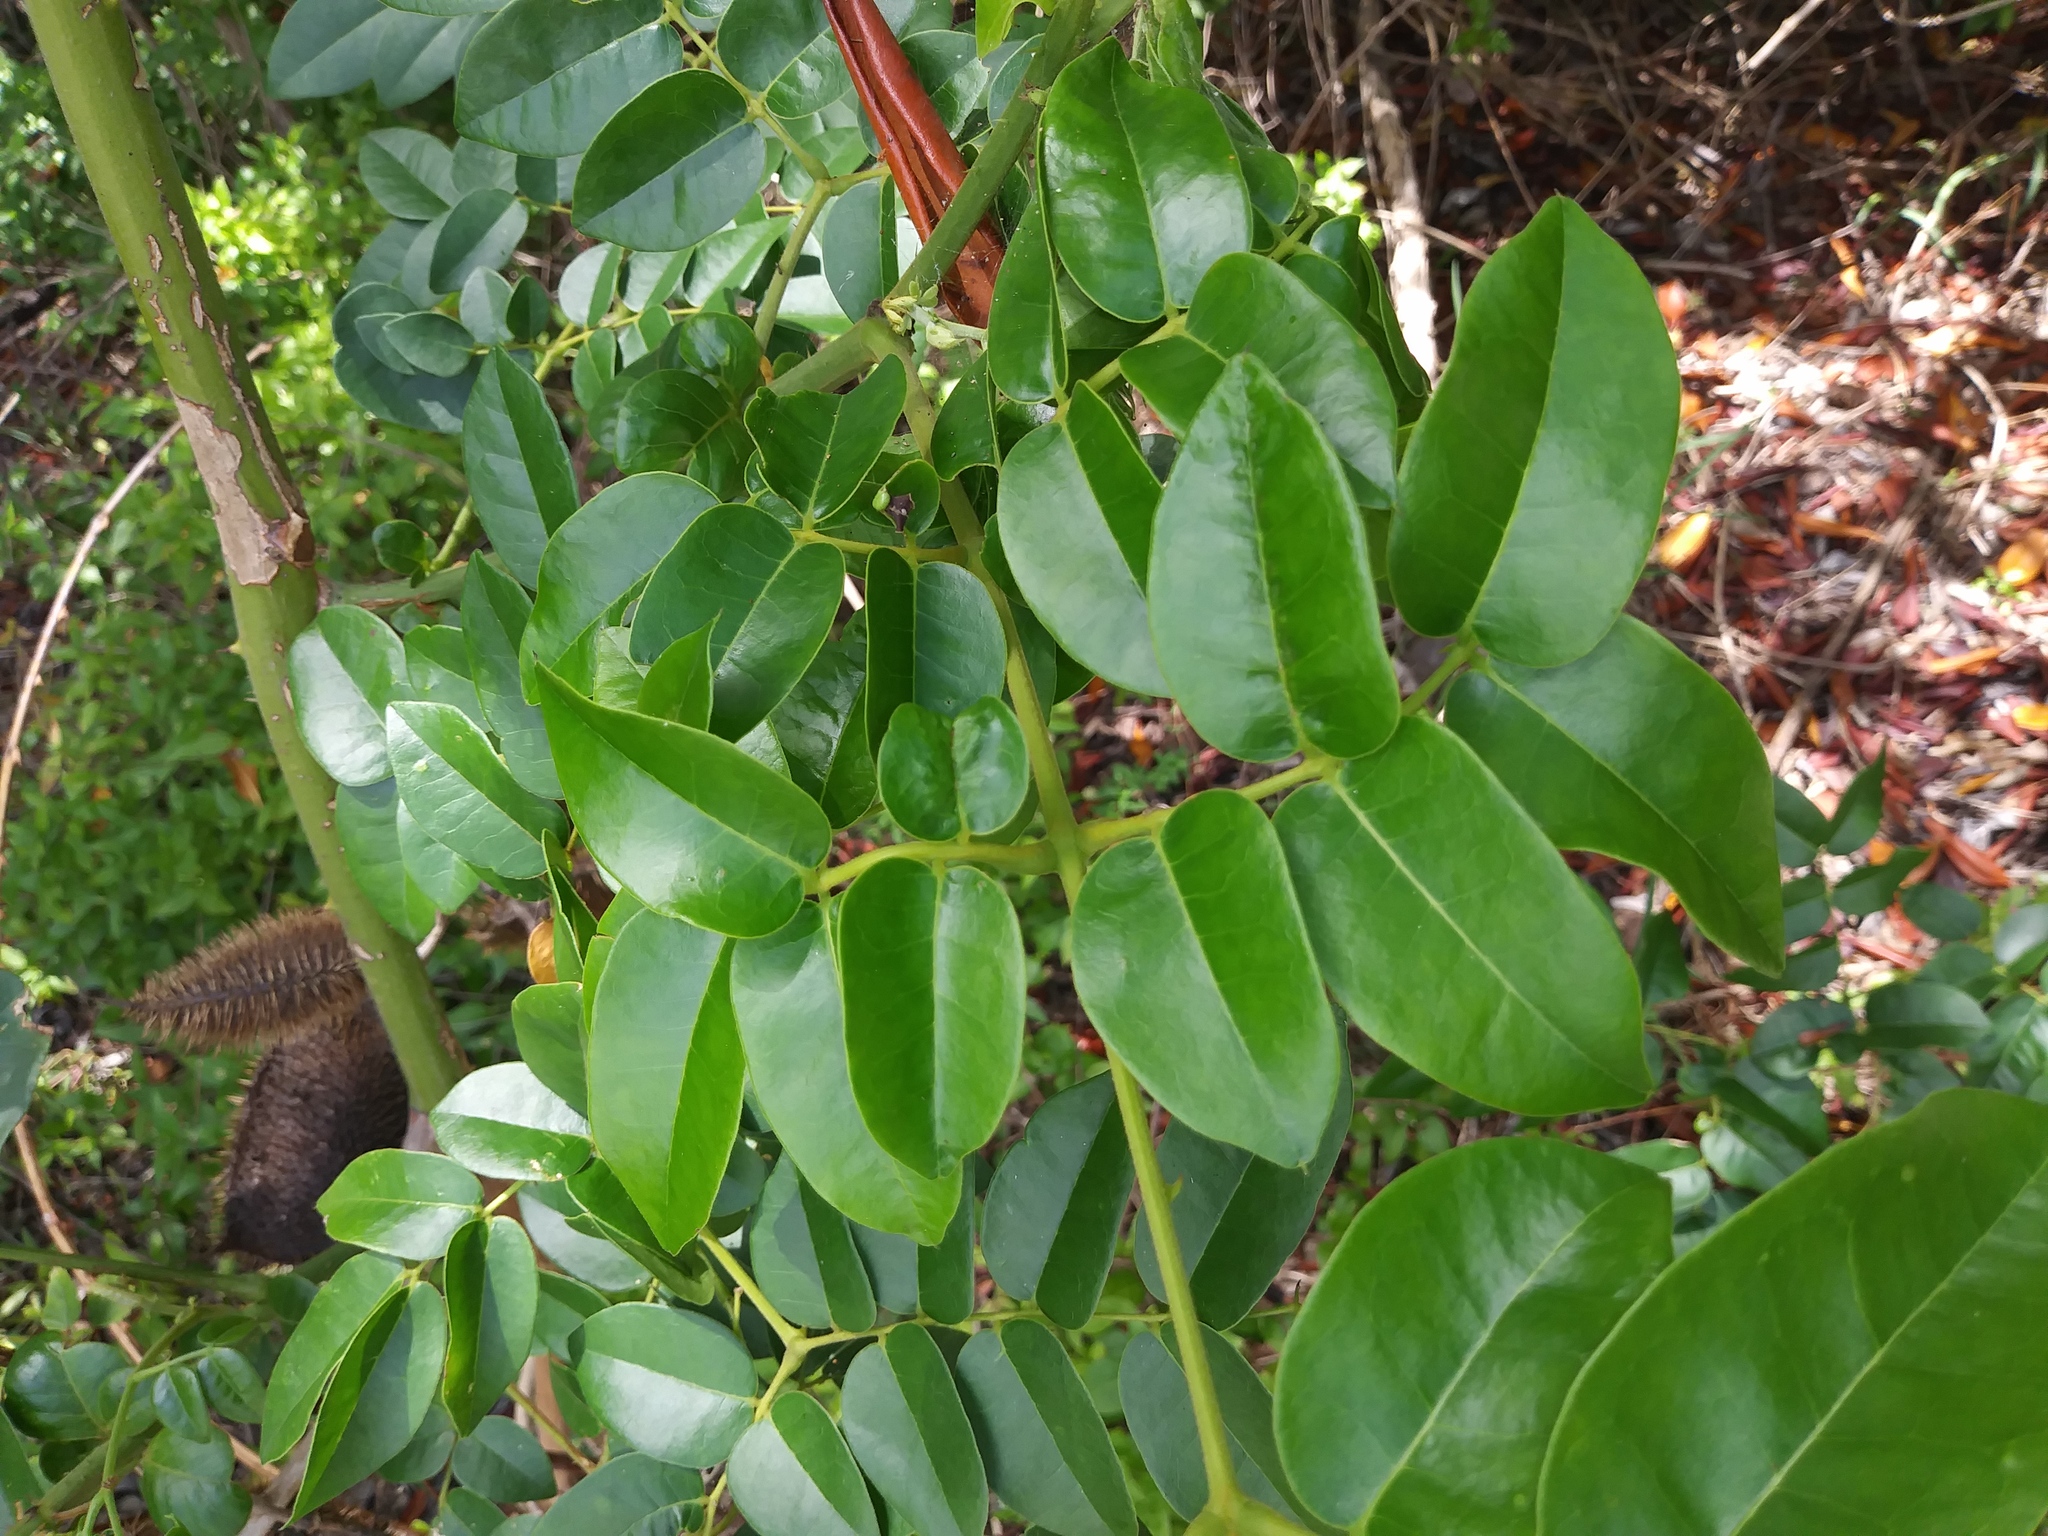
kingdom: Plantae
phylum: Tracheophyta
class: Magnoliopsida
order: Fabales
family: Fabaceae
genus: Guilandina
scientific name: Guilandina bonduc
